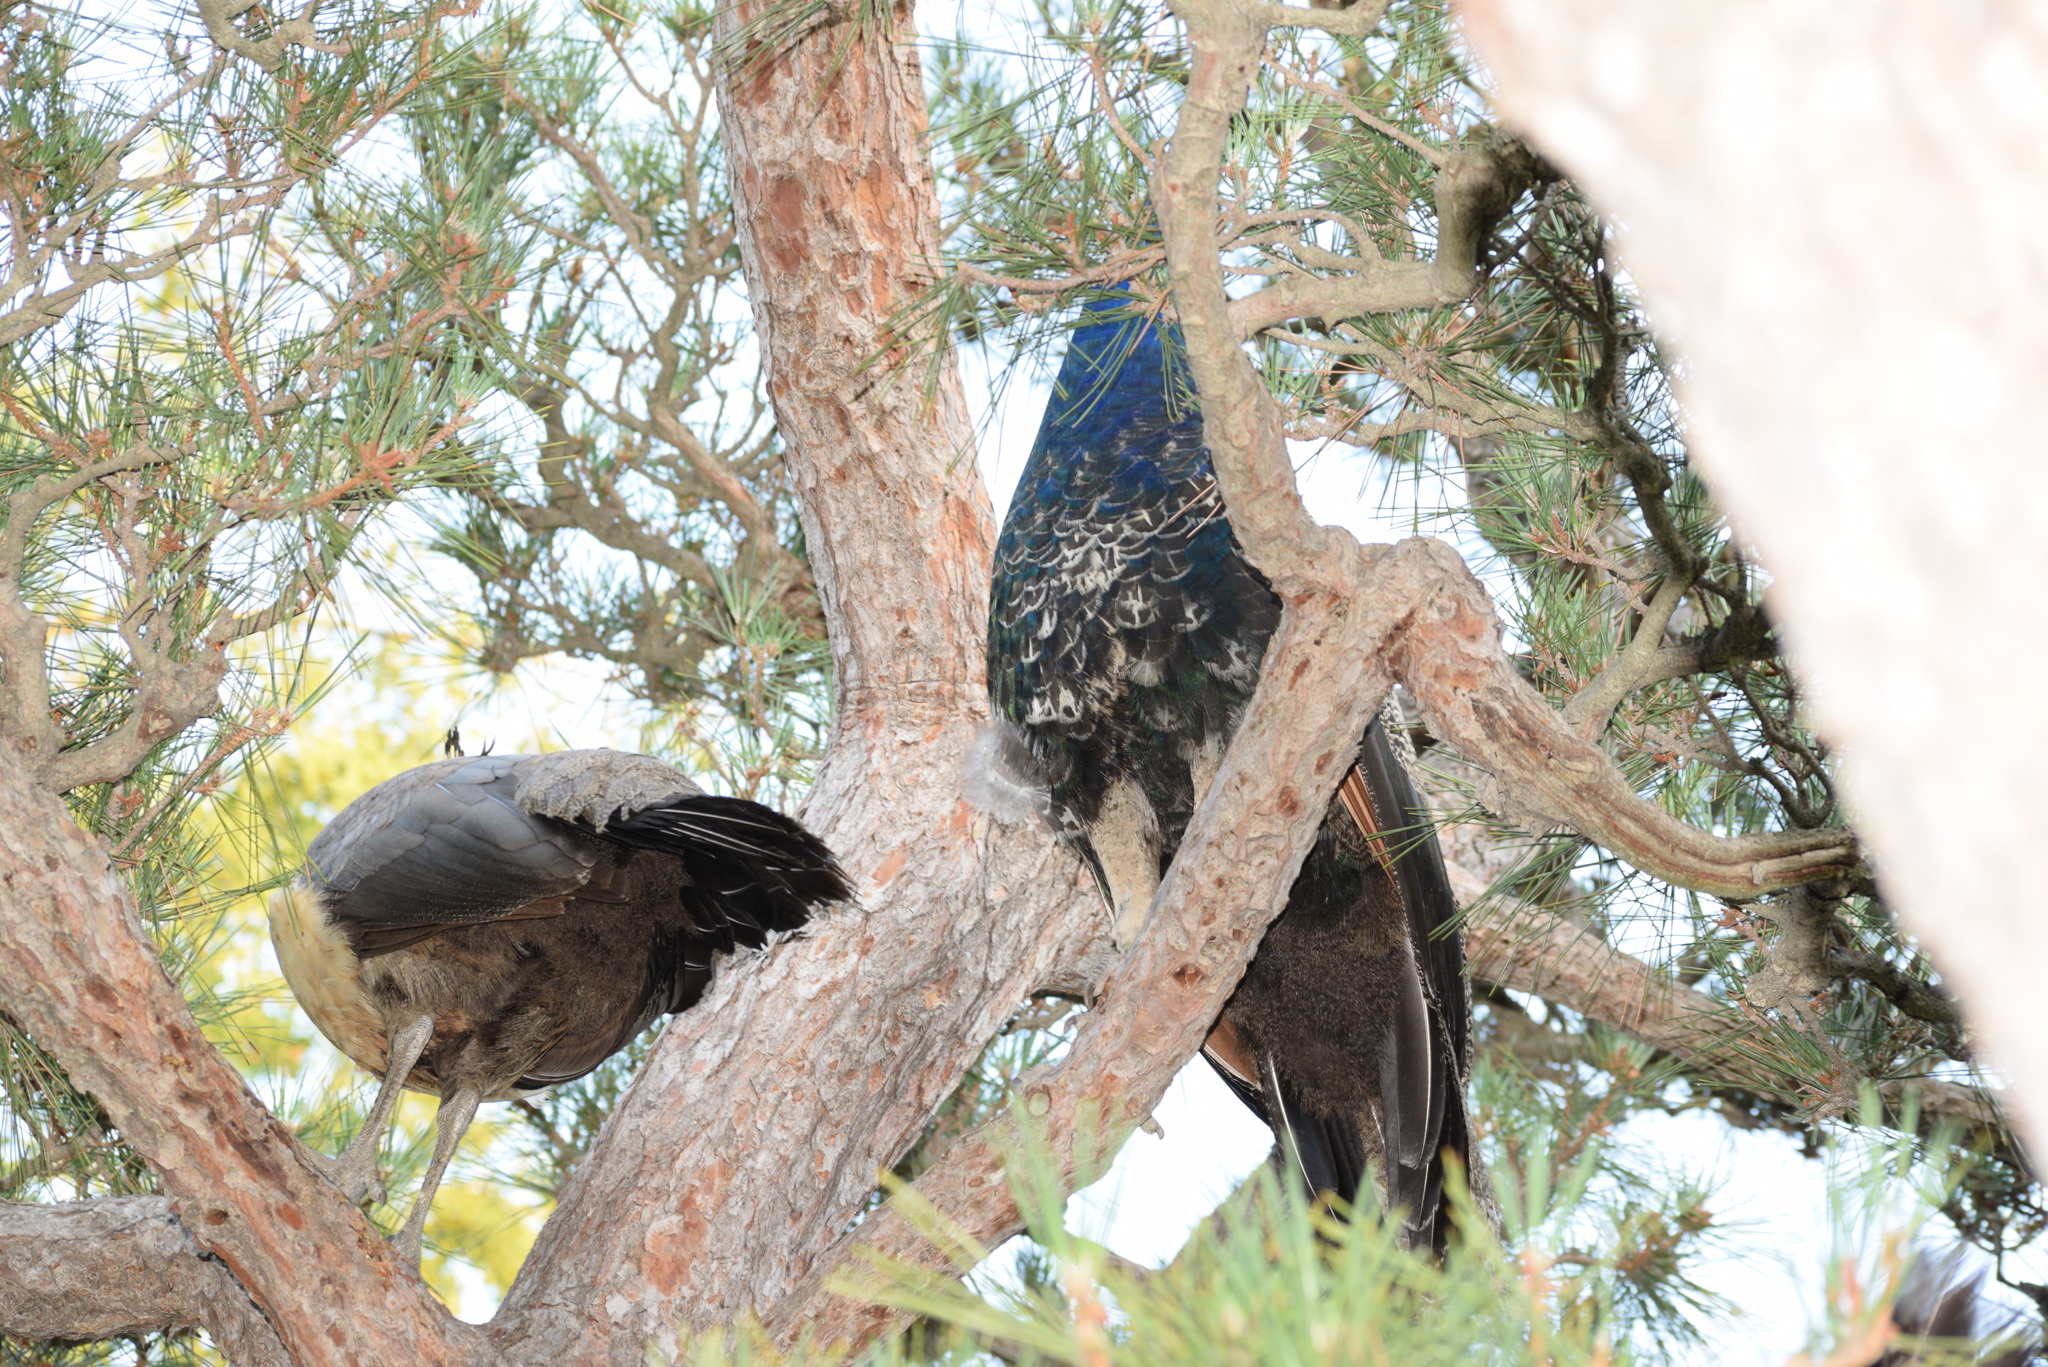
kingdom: Animalia
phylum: Chordata
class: Aves
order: Galliformes
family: Phasianidae
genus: Pavo
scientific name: Pavo cristatus
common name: Indian peafowl
